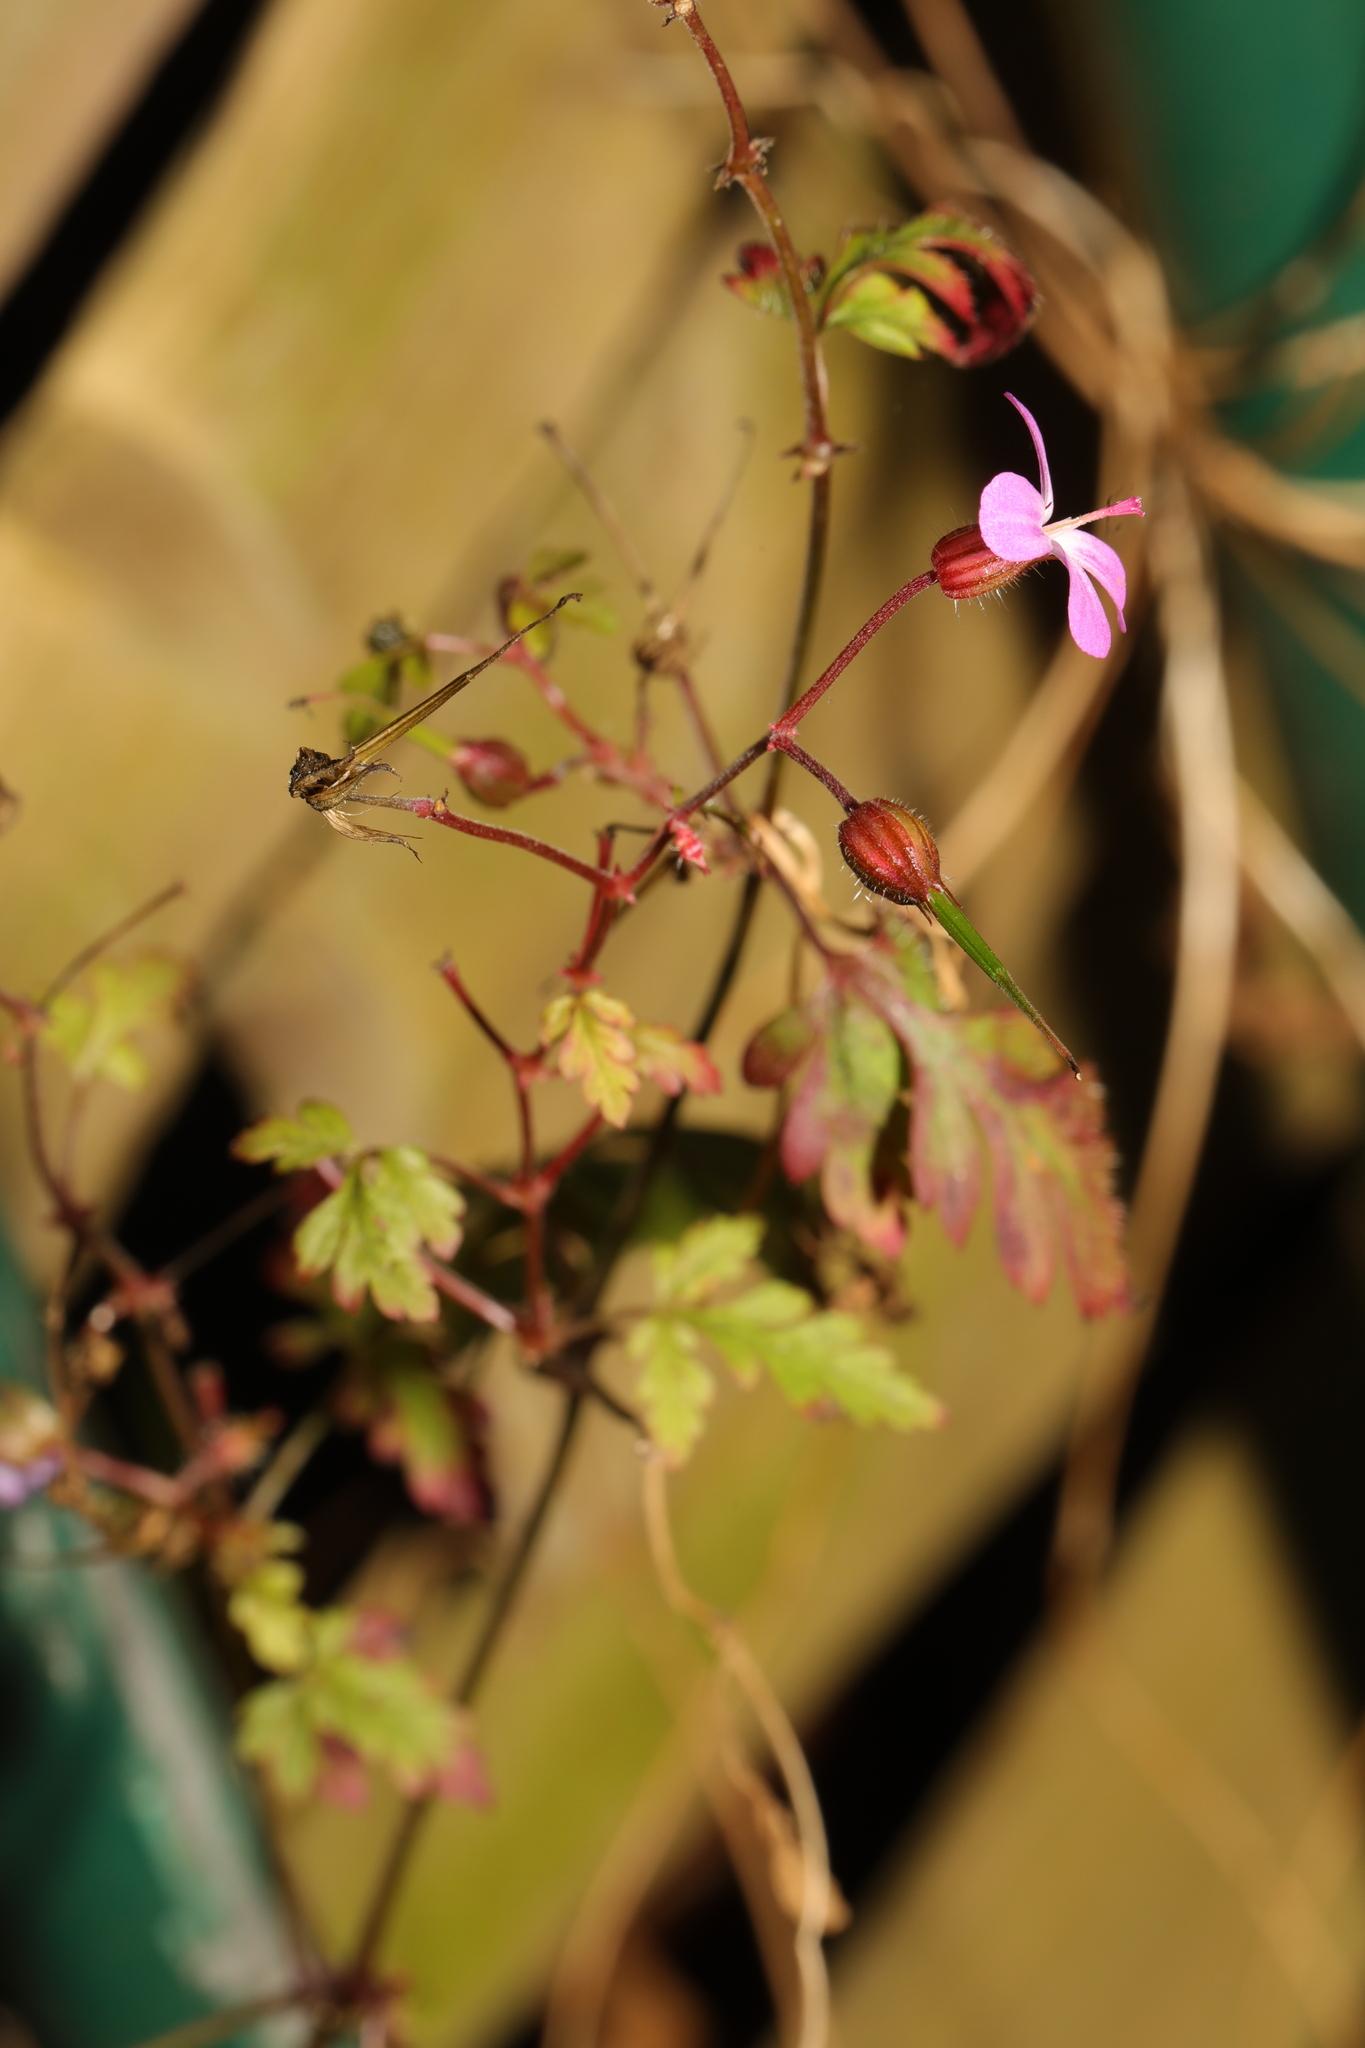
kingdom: Plantae
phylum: Tracheophyta
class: Magnoliopsida
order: Geraniales
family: Geraniaceae
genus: Geranium
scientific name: Geranium robertianum
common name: Herb-robert
